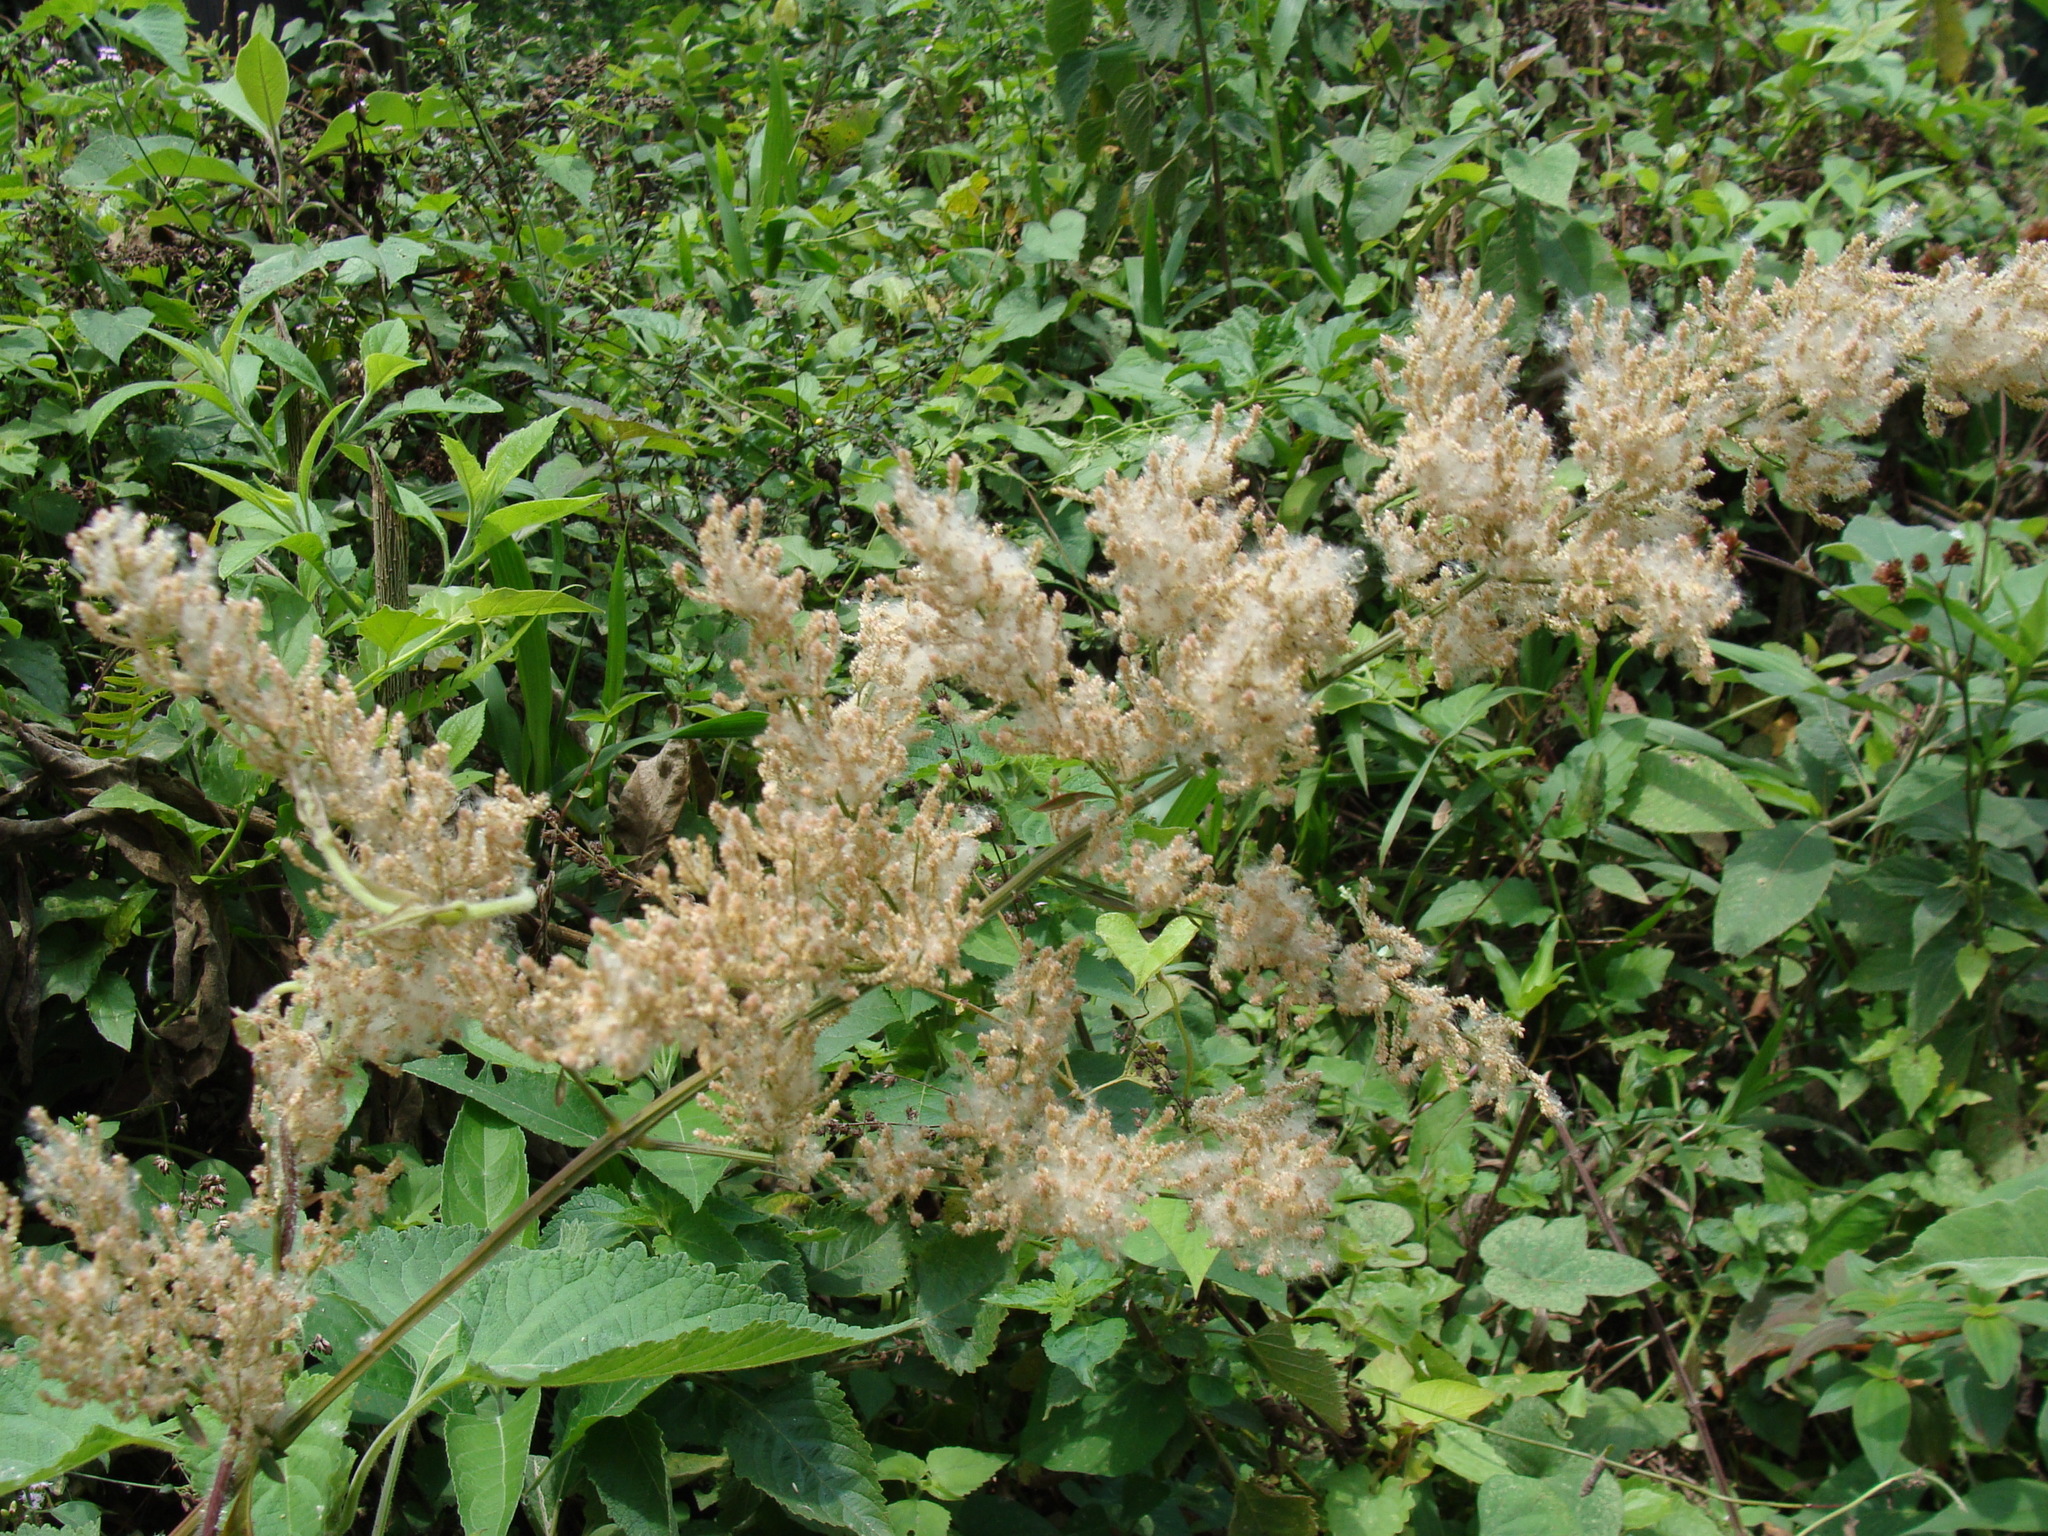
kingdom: Plantae
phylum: Tracheophyta
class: Magnoliopsida
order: Caryophyllales
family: Amaranthaceae
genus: Iresine
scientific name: Iresine diffusa
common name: Juba's-bush
